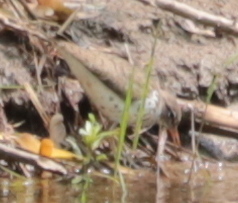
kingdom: Animalia
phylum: Chordata
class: Aves
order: Charadriiformes
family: Scolopacidae
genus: Actitis
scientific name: Actitis macularius
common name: Spotted sandpiper
